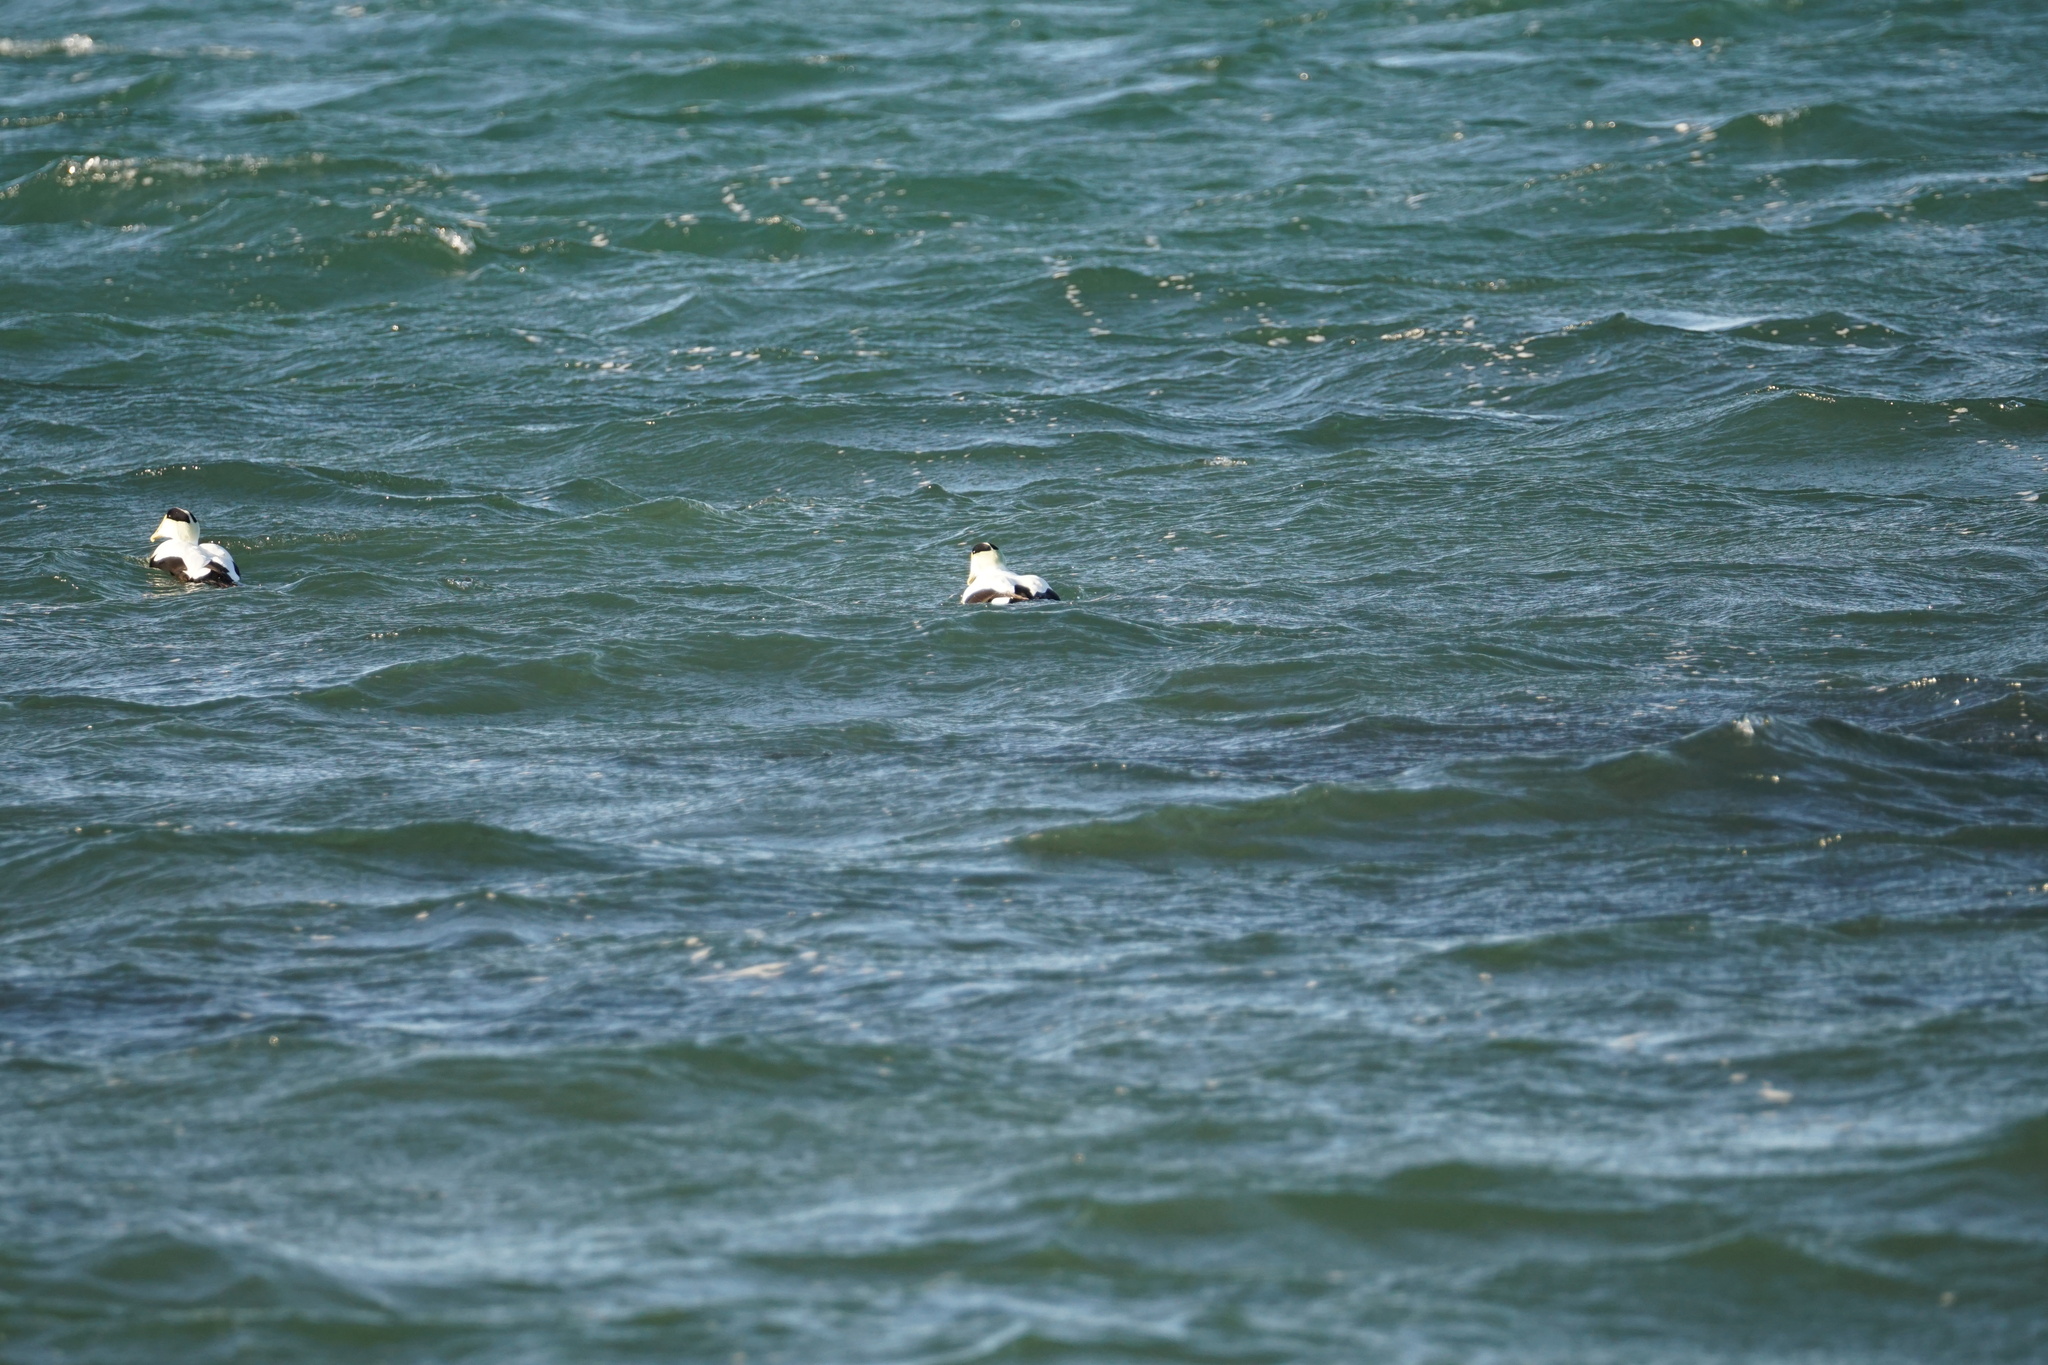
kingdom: Animalia
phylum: Chordata
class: Aves
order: Anseriformes
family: Anatidae
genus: Somateria
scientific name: Somateria mollissima
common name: Common eider
